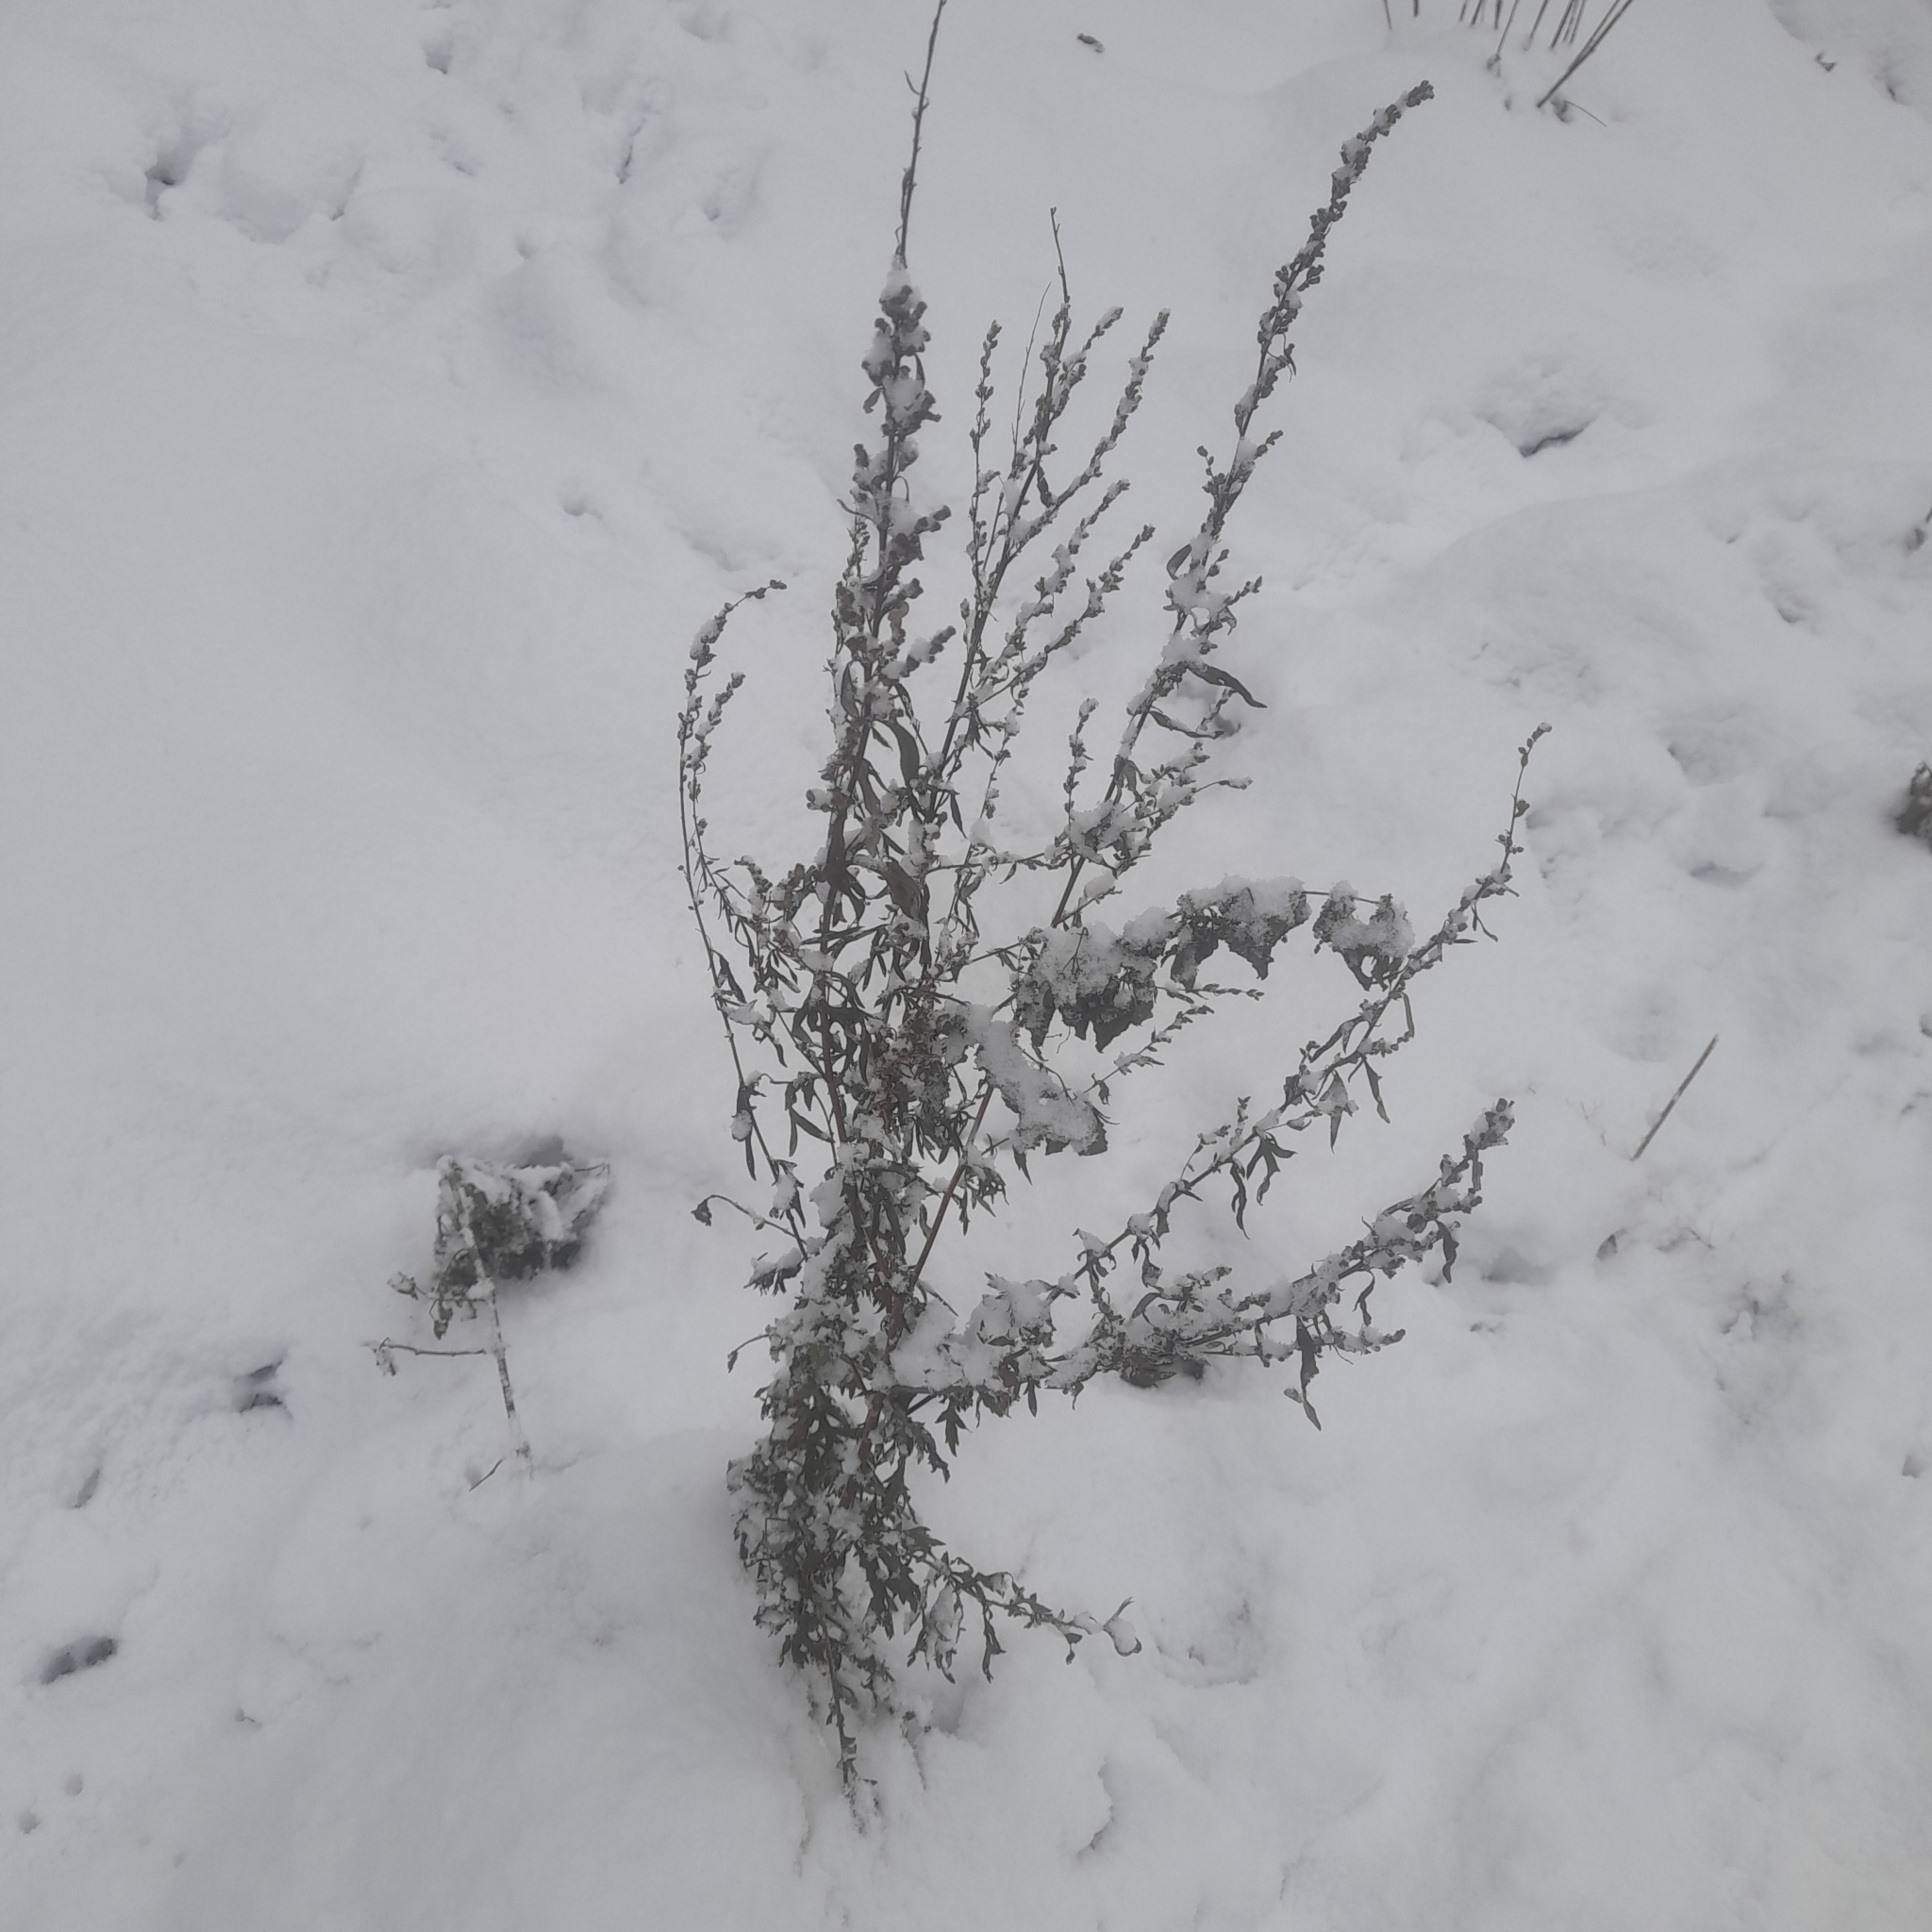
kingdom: Plantae
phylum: Tracheophyta
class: Magnoliopsida
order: Asterales
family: Asteraceae
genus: Artemisia
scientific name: Artemisia vulgaris
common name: Mugwort
